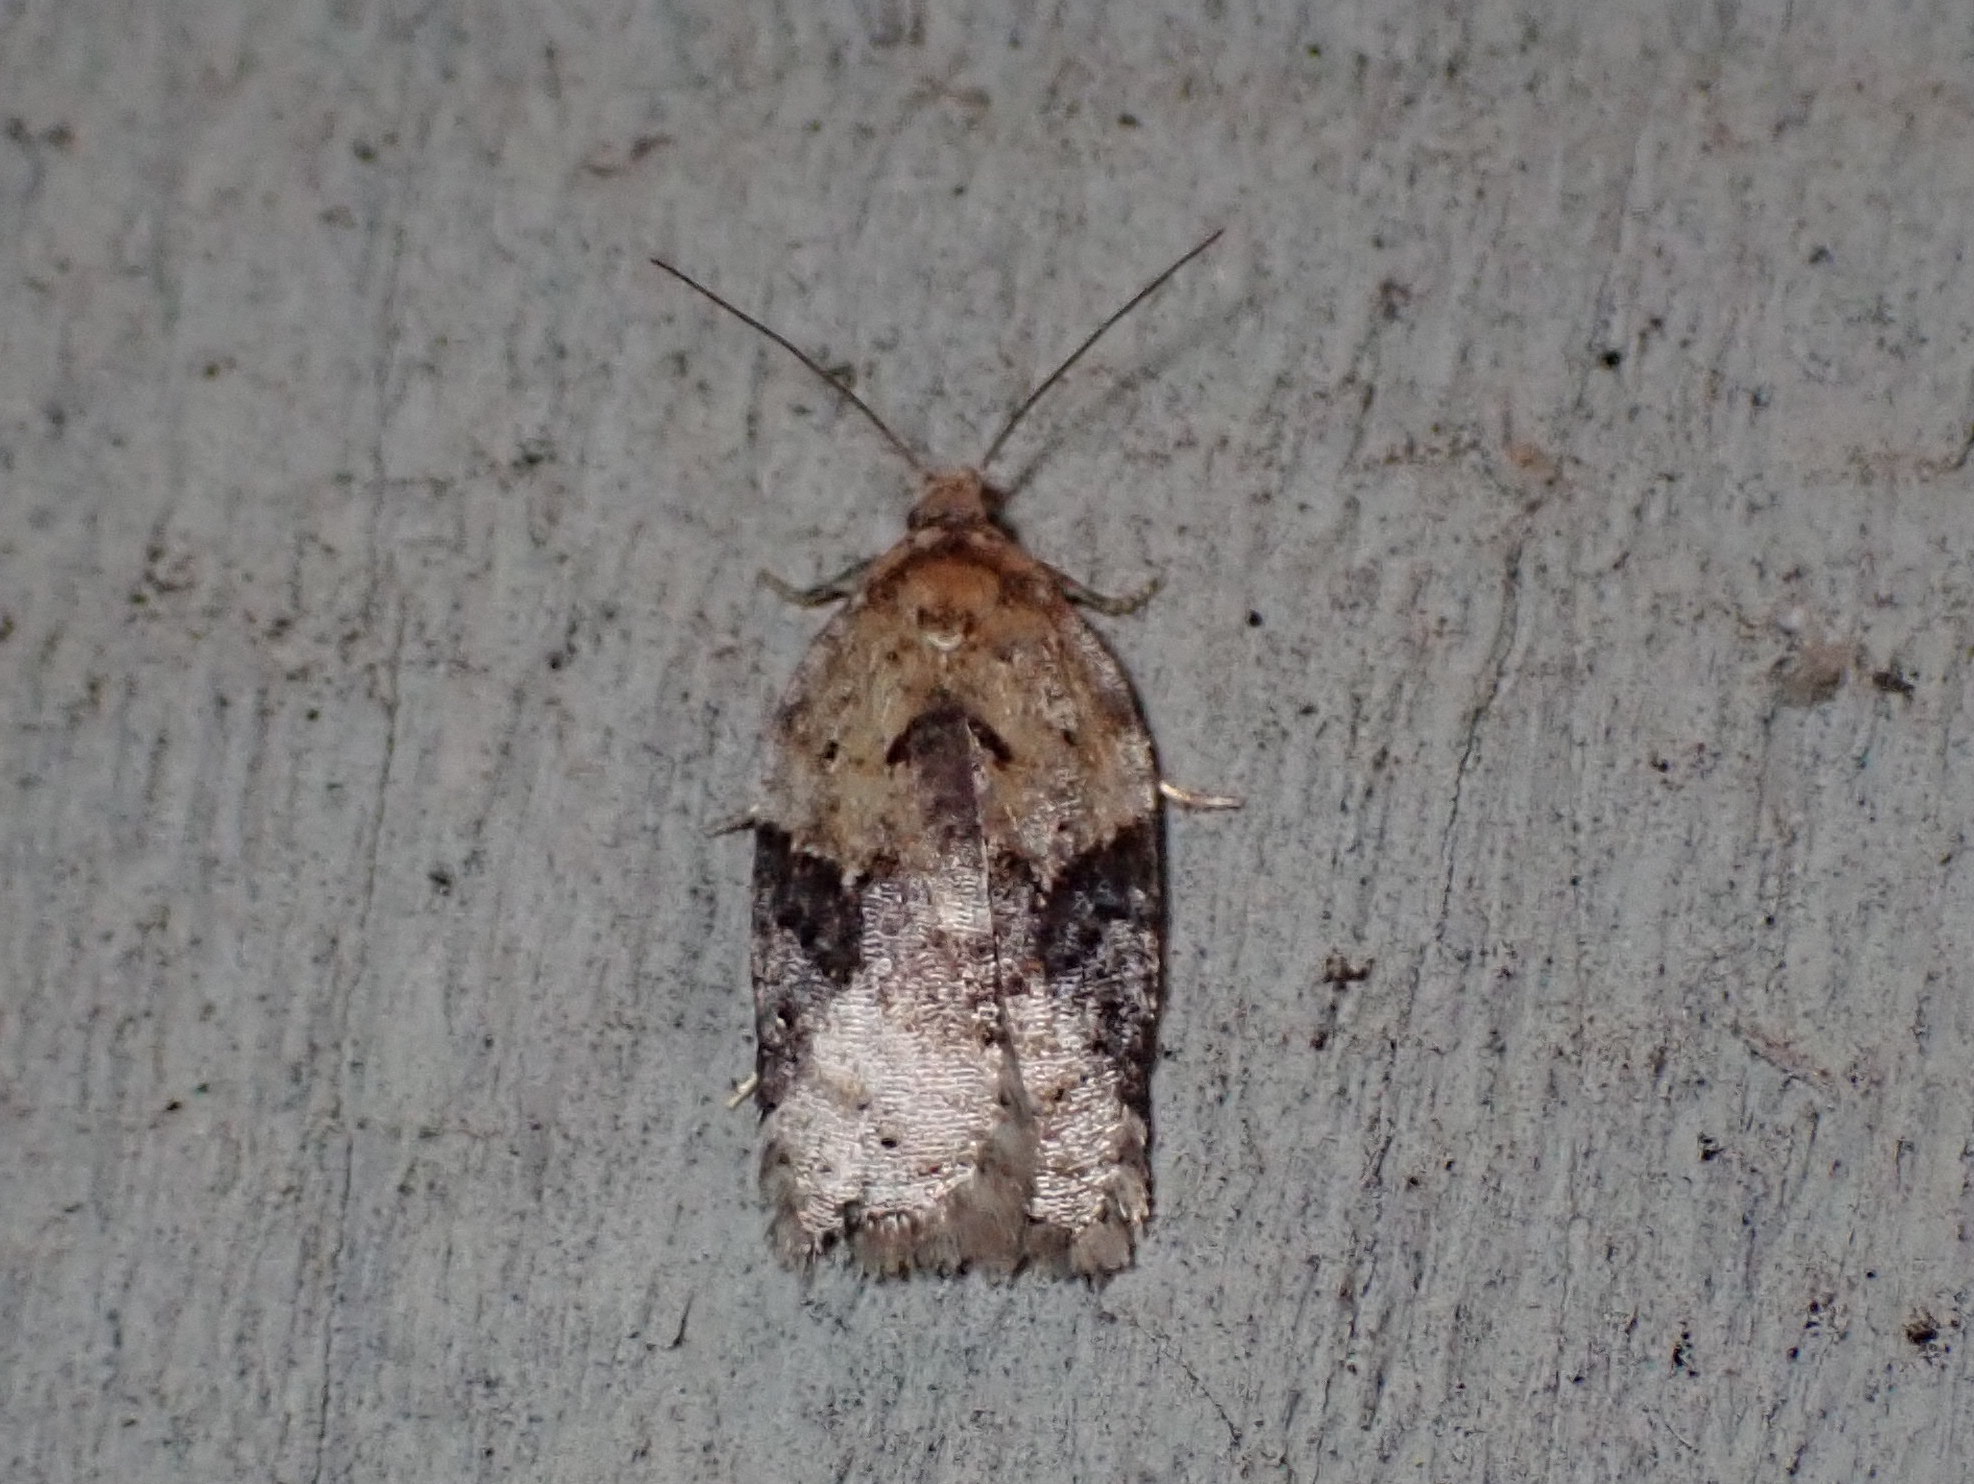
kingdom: Animalia
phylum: Arthropoda
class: Insecta
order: Lepidoptera
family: Tortricidae
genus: Argyrotaenia
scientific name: Argyrotaenia mariana
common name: Gray-banded leafroller moth
